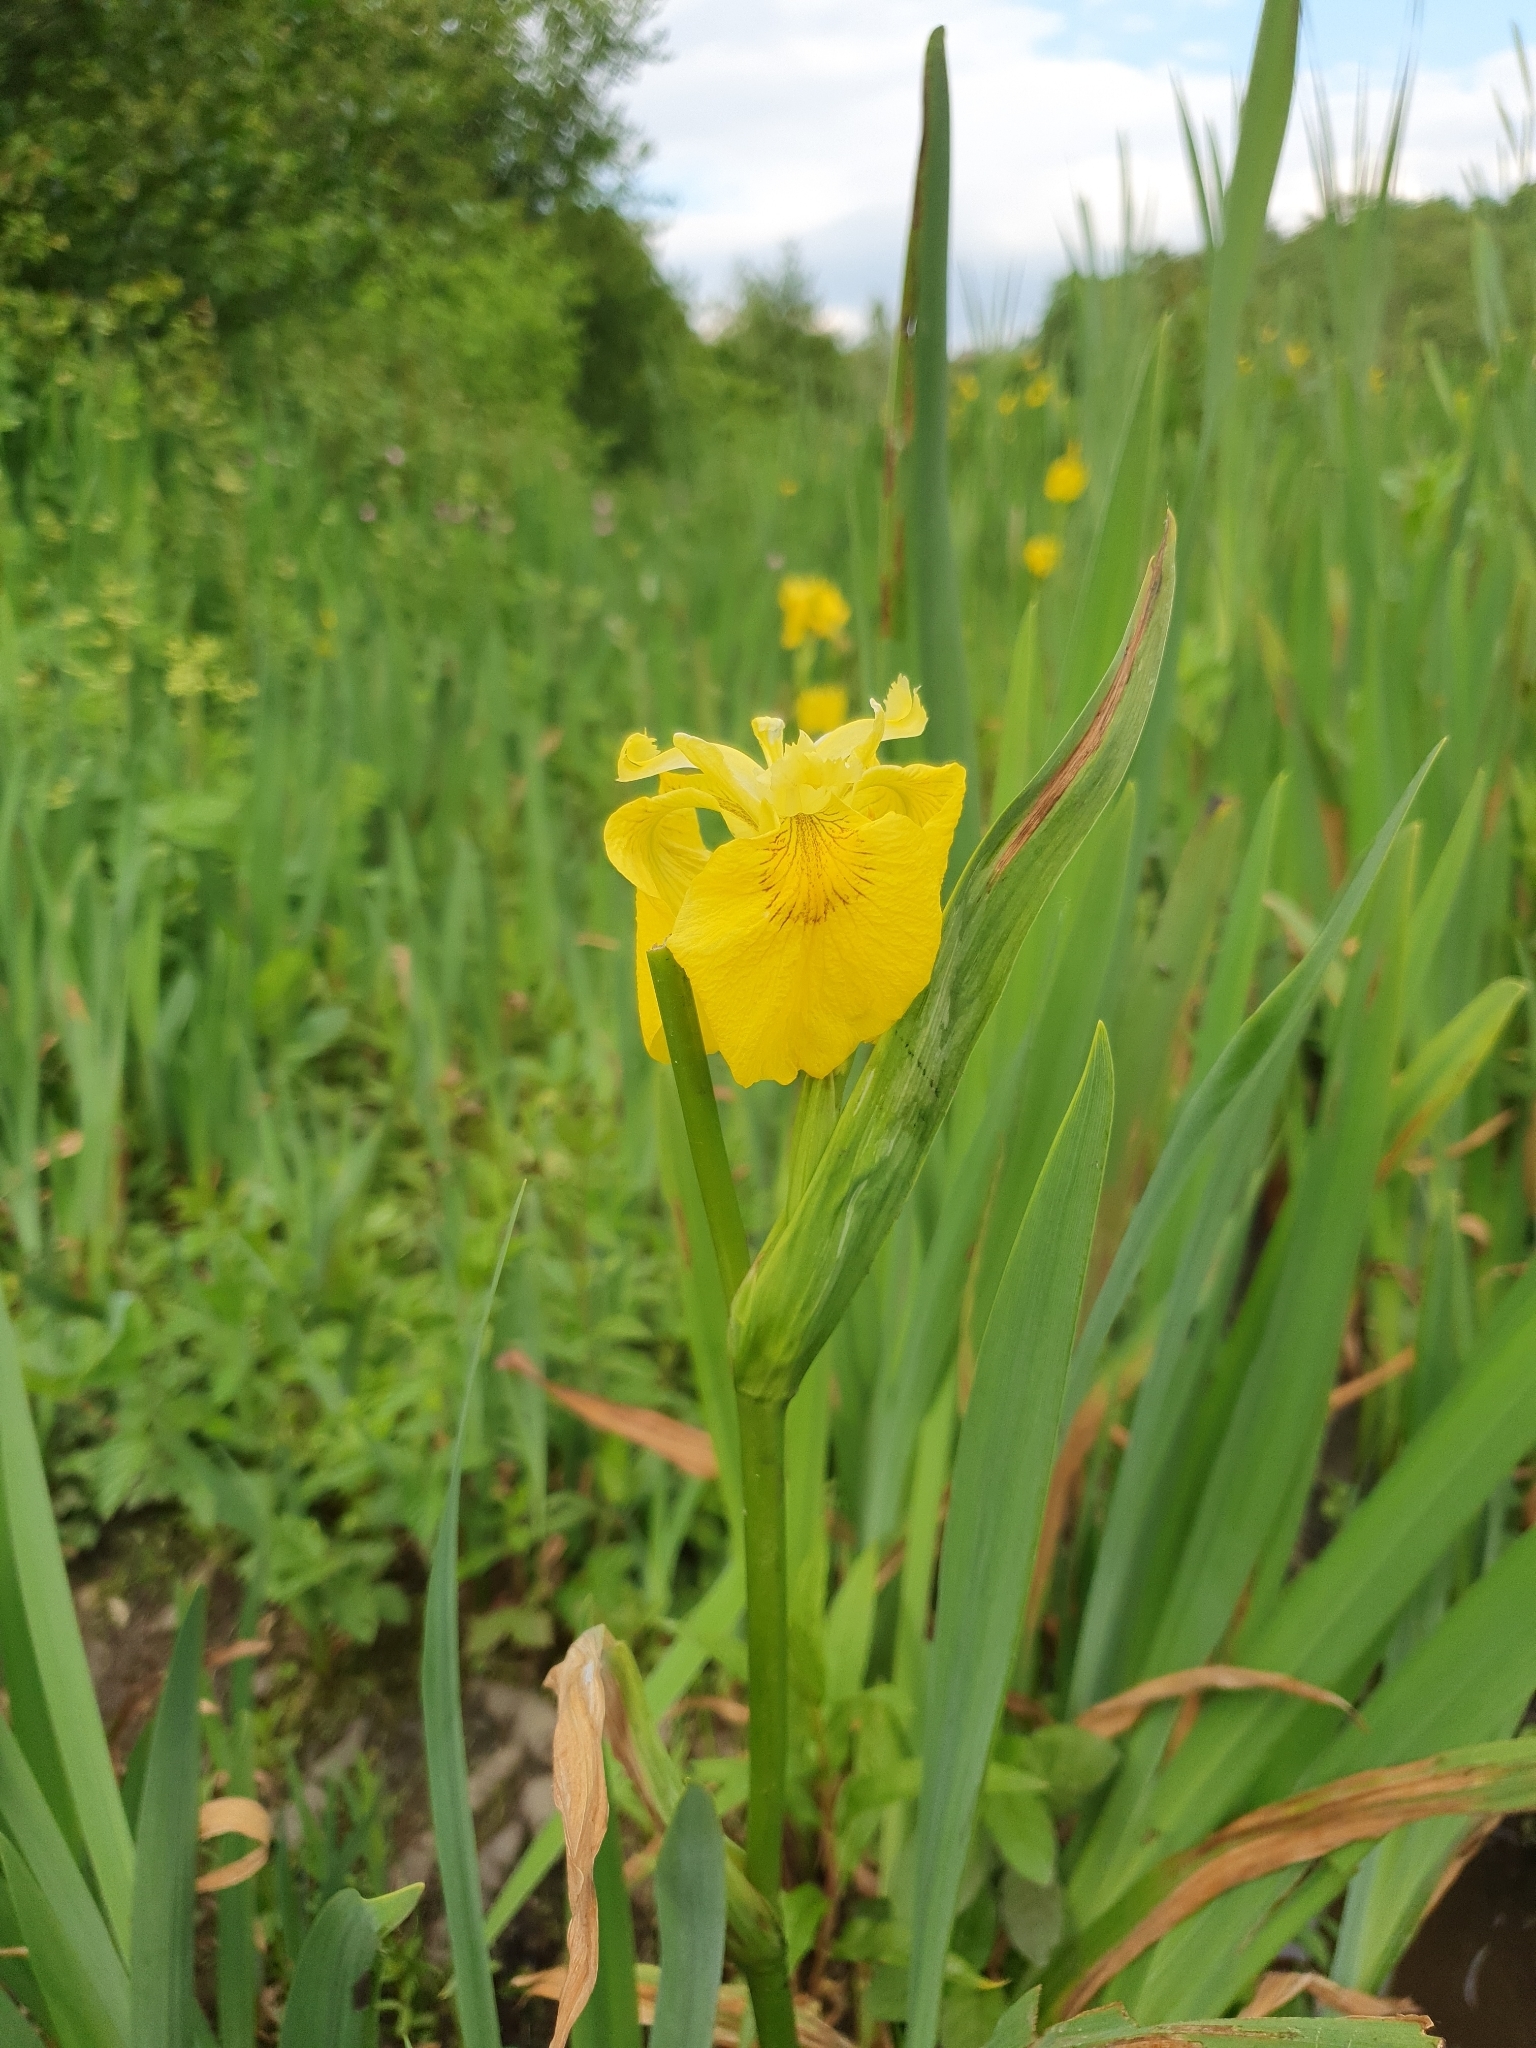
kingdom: Plantae
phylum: Tracheophyta
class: Liliopsida
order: Asparagales
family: Iridaceae
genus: Iris
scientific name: Iris pseudacorus
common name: Yellow flag
